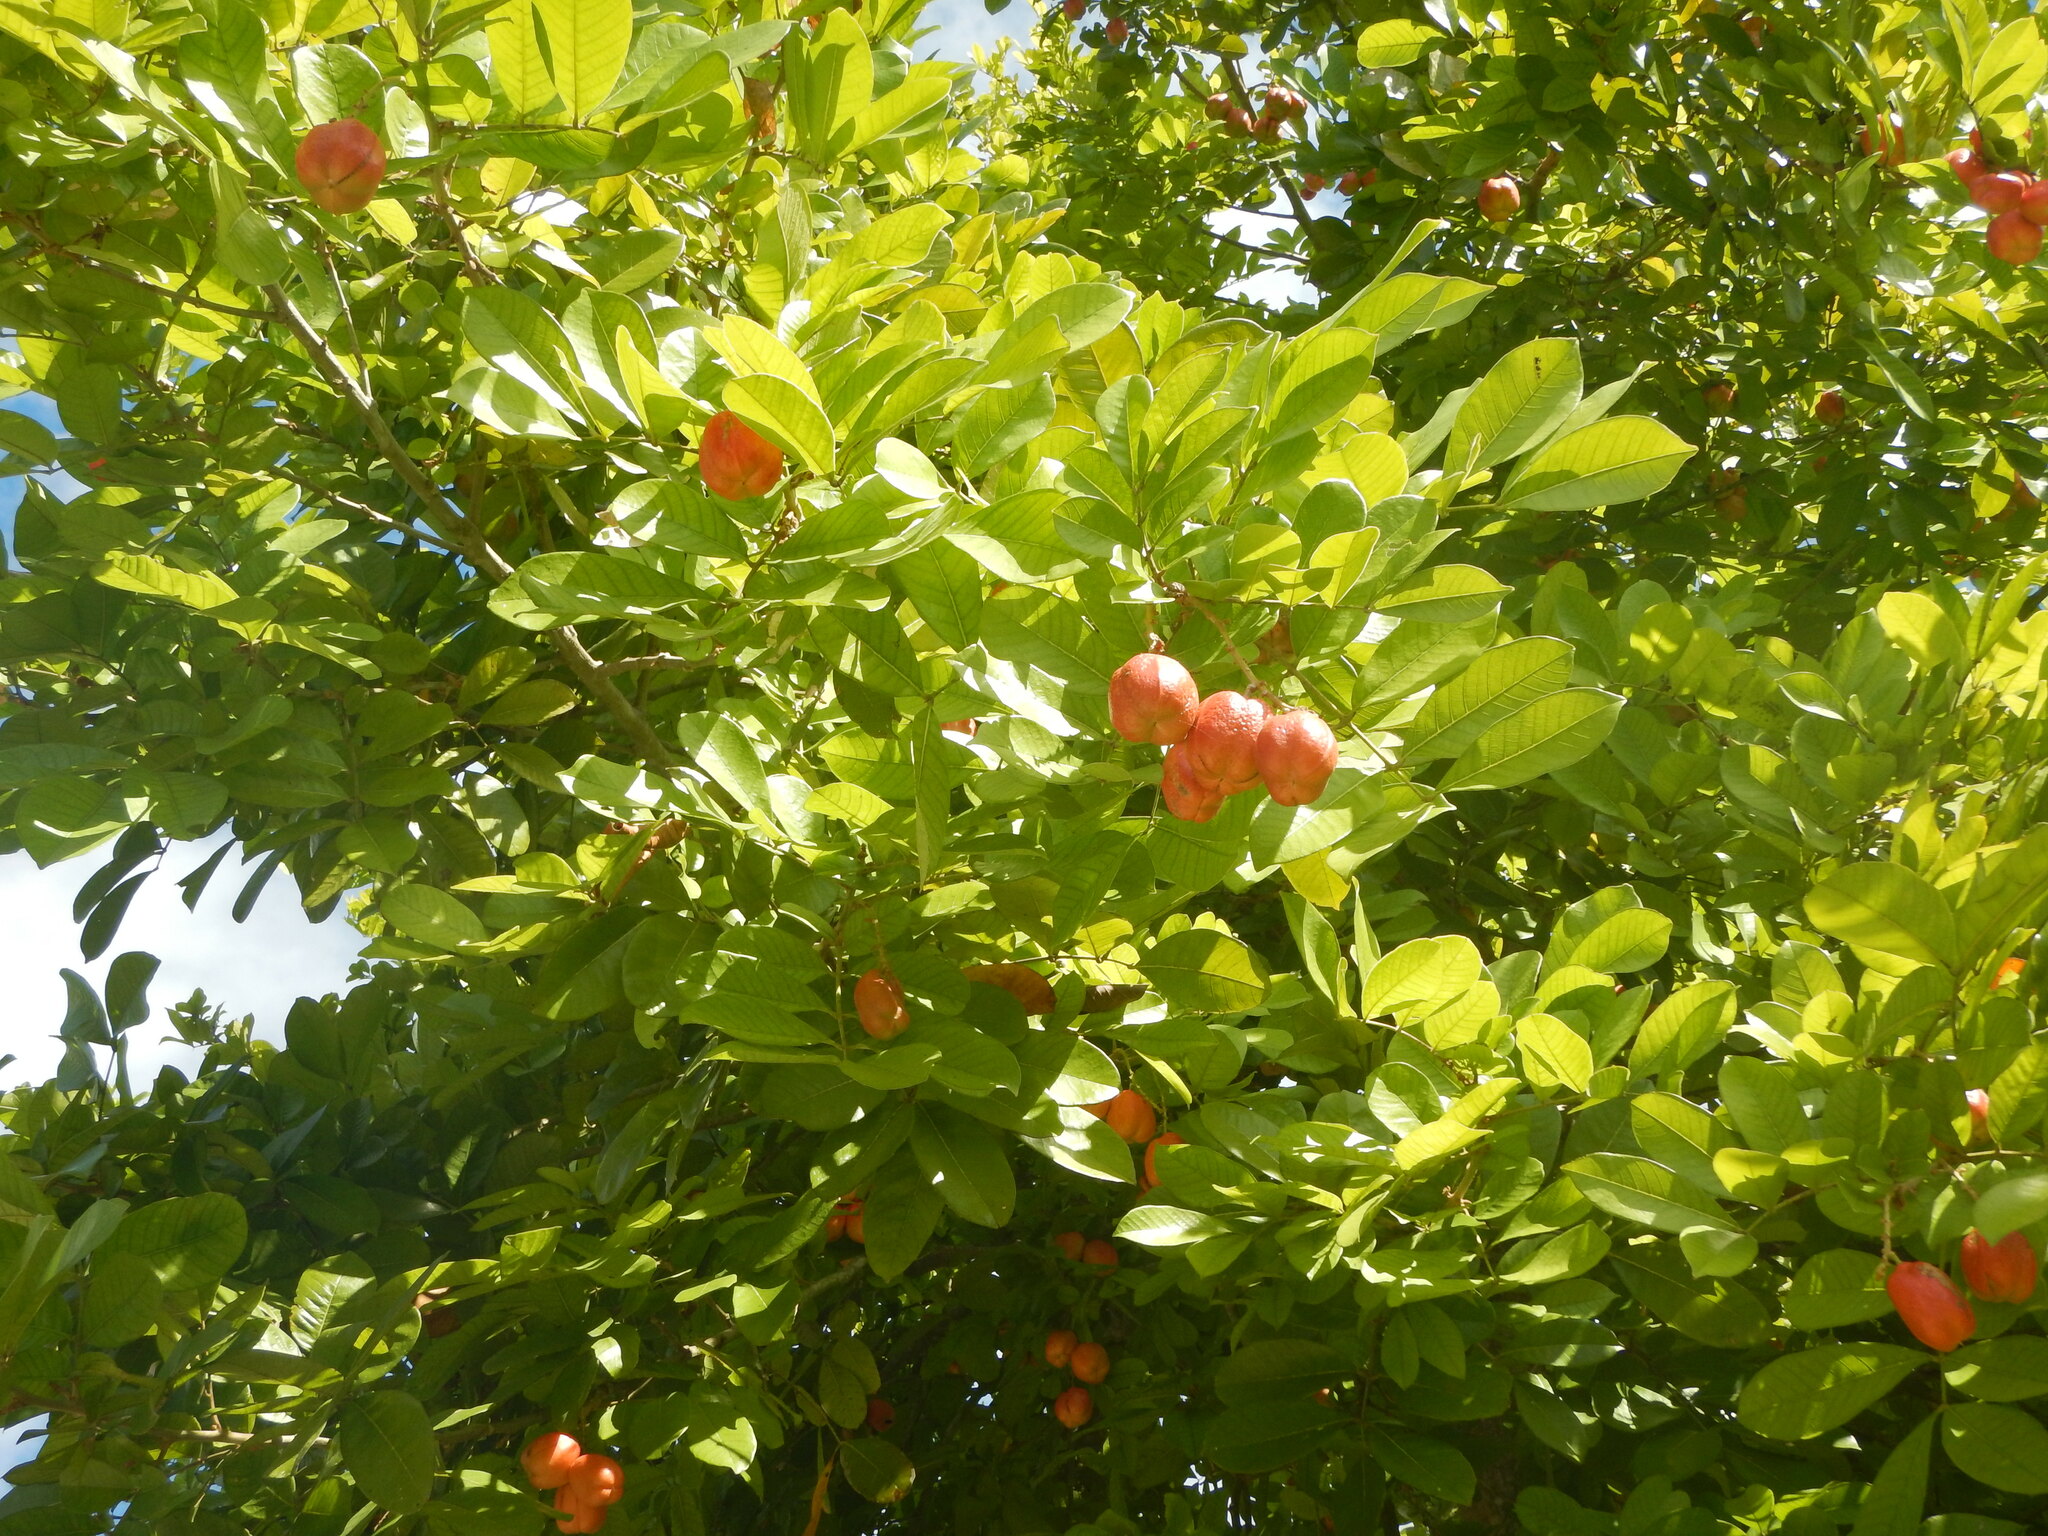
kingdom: Plantae
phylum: Tracheophyta
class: Magnoliopsida
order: Sapindales
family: Sapindaceae
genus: Blighia
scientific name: Blighia sapida
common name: Akee
